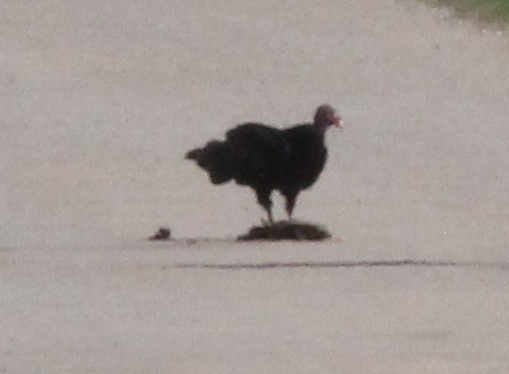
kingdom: Animalia
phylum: Chordata
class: Aves
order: Accipitriformes
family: Cathartidae
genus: Cathartes
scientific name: Cathartes aura
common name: Turkey vulture
